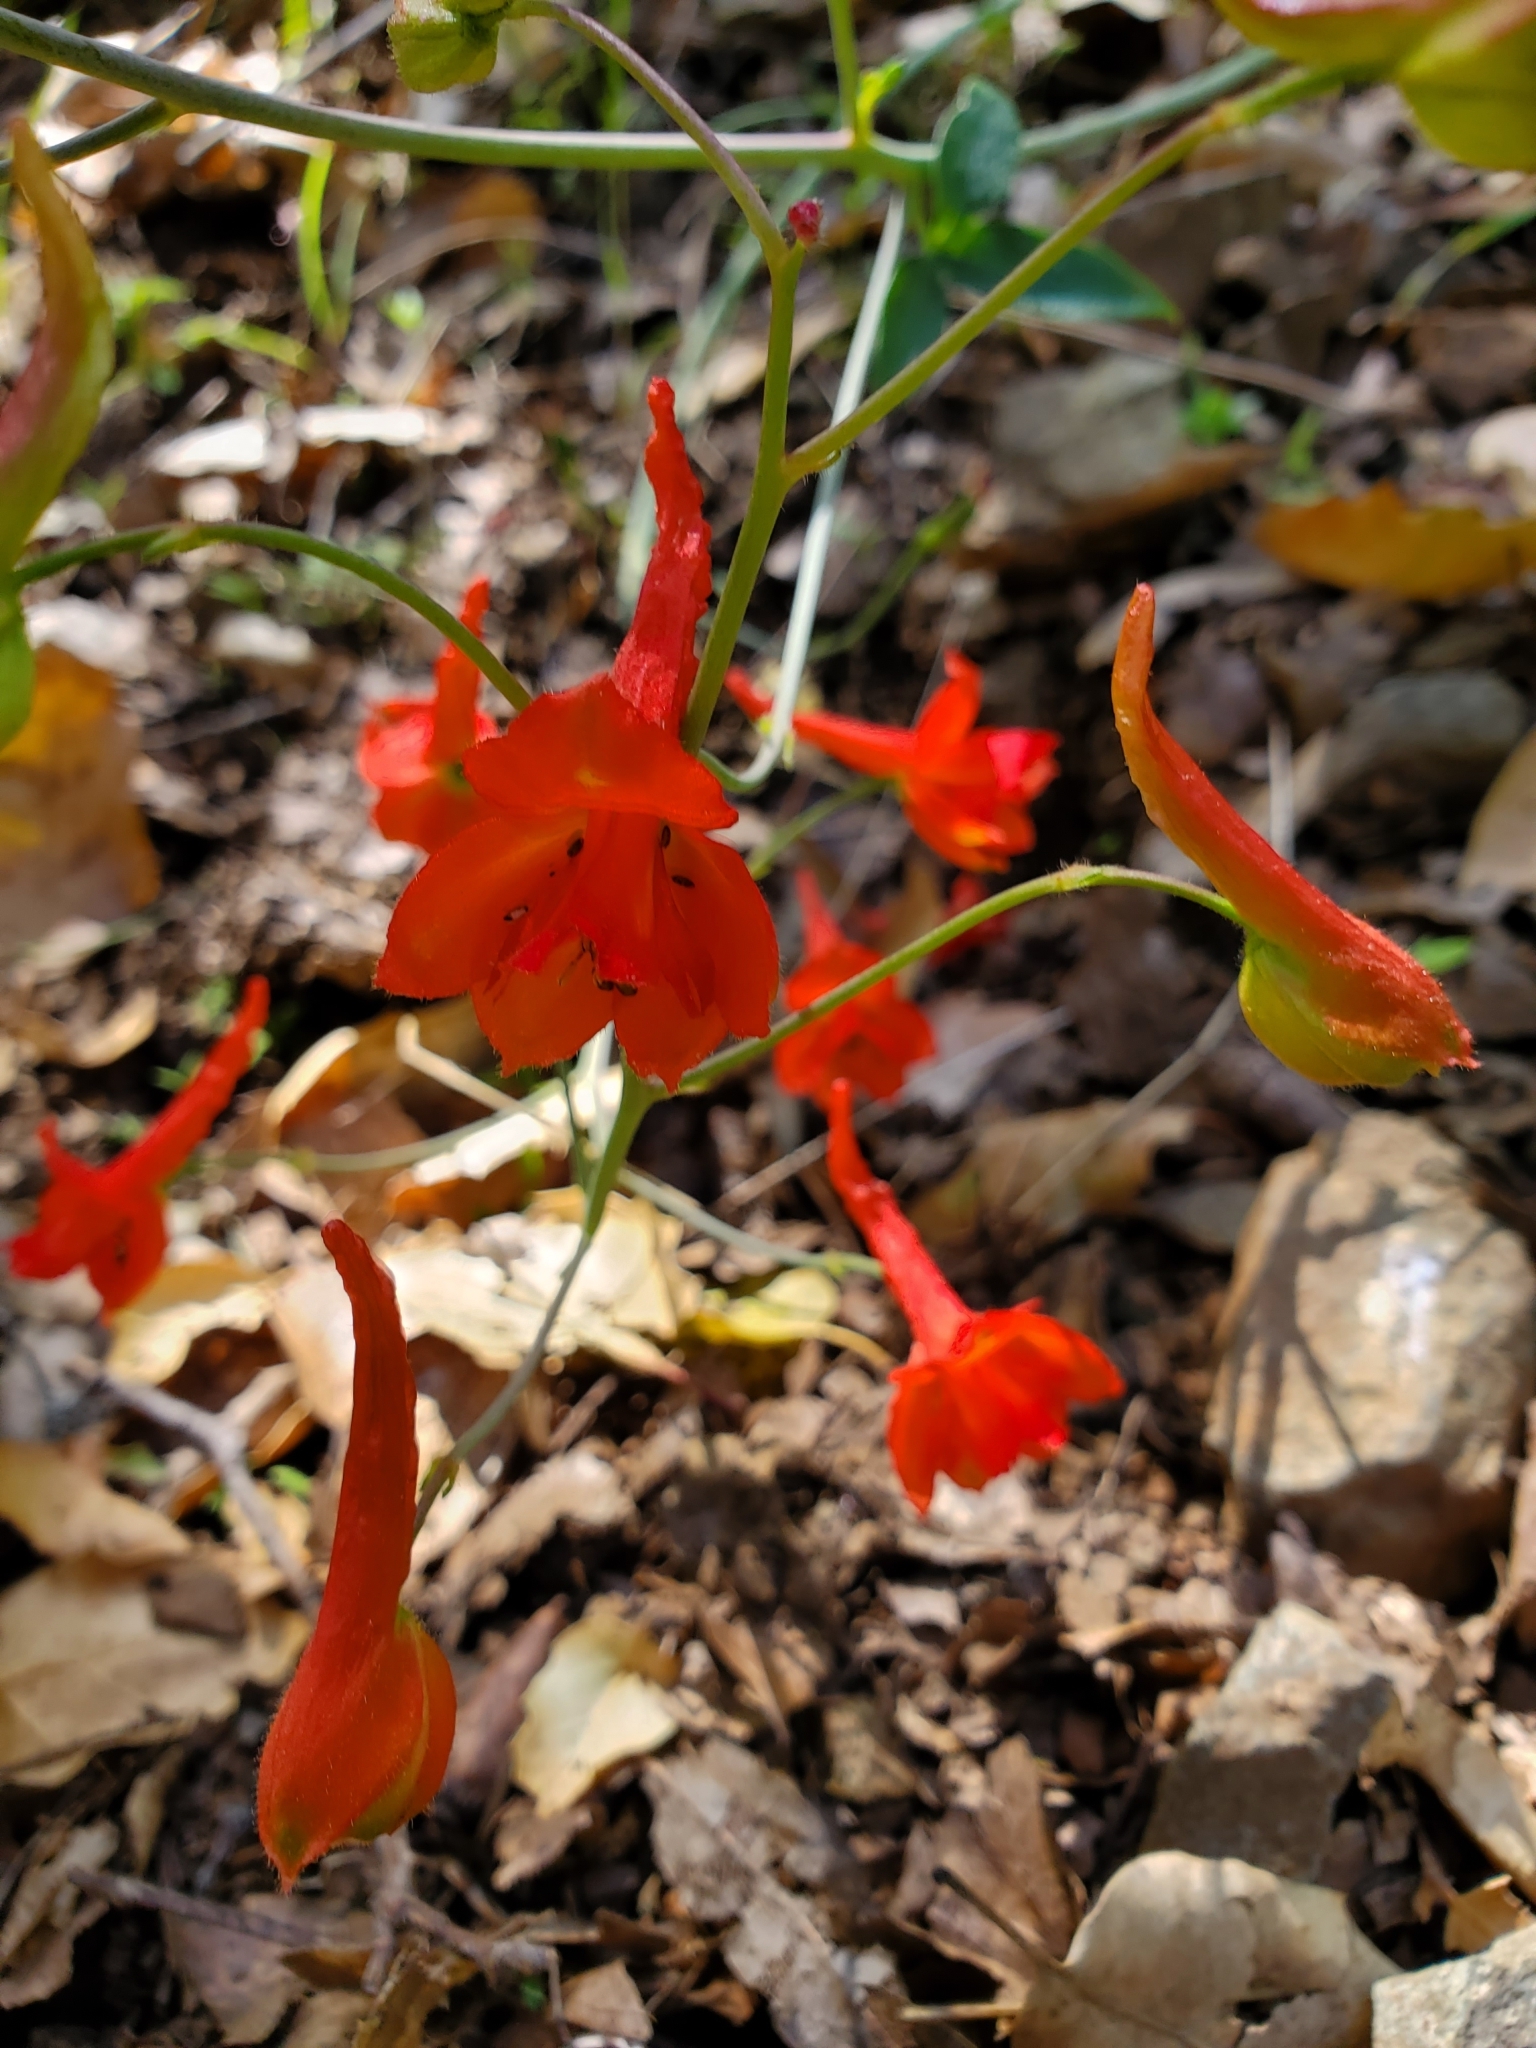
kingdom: Plantae
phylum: Tracheophyta
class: Magnoliopsida
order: Ranunculales
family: Ranunculaceae
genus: Delphinium
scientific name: Delphinium nudicaule
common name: Red larkspur
